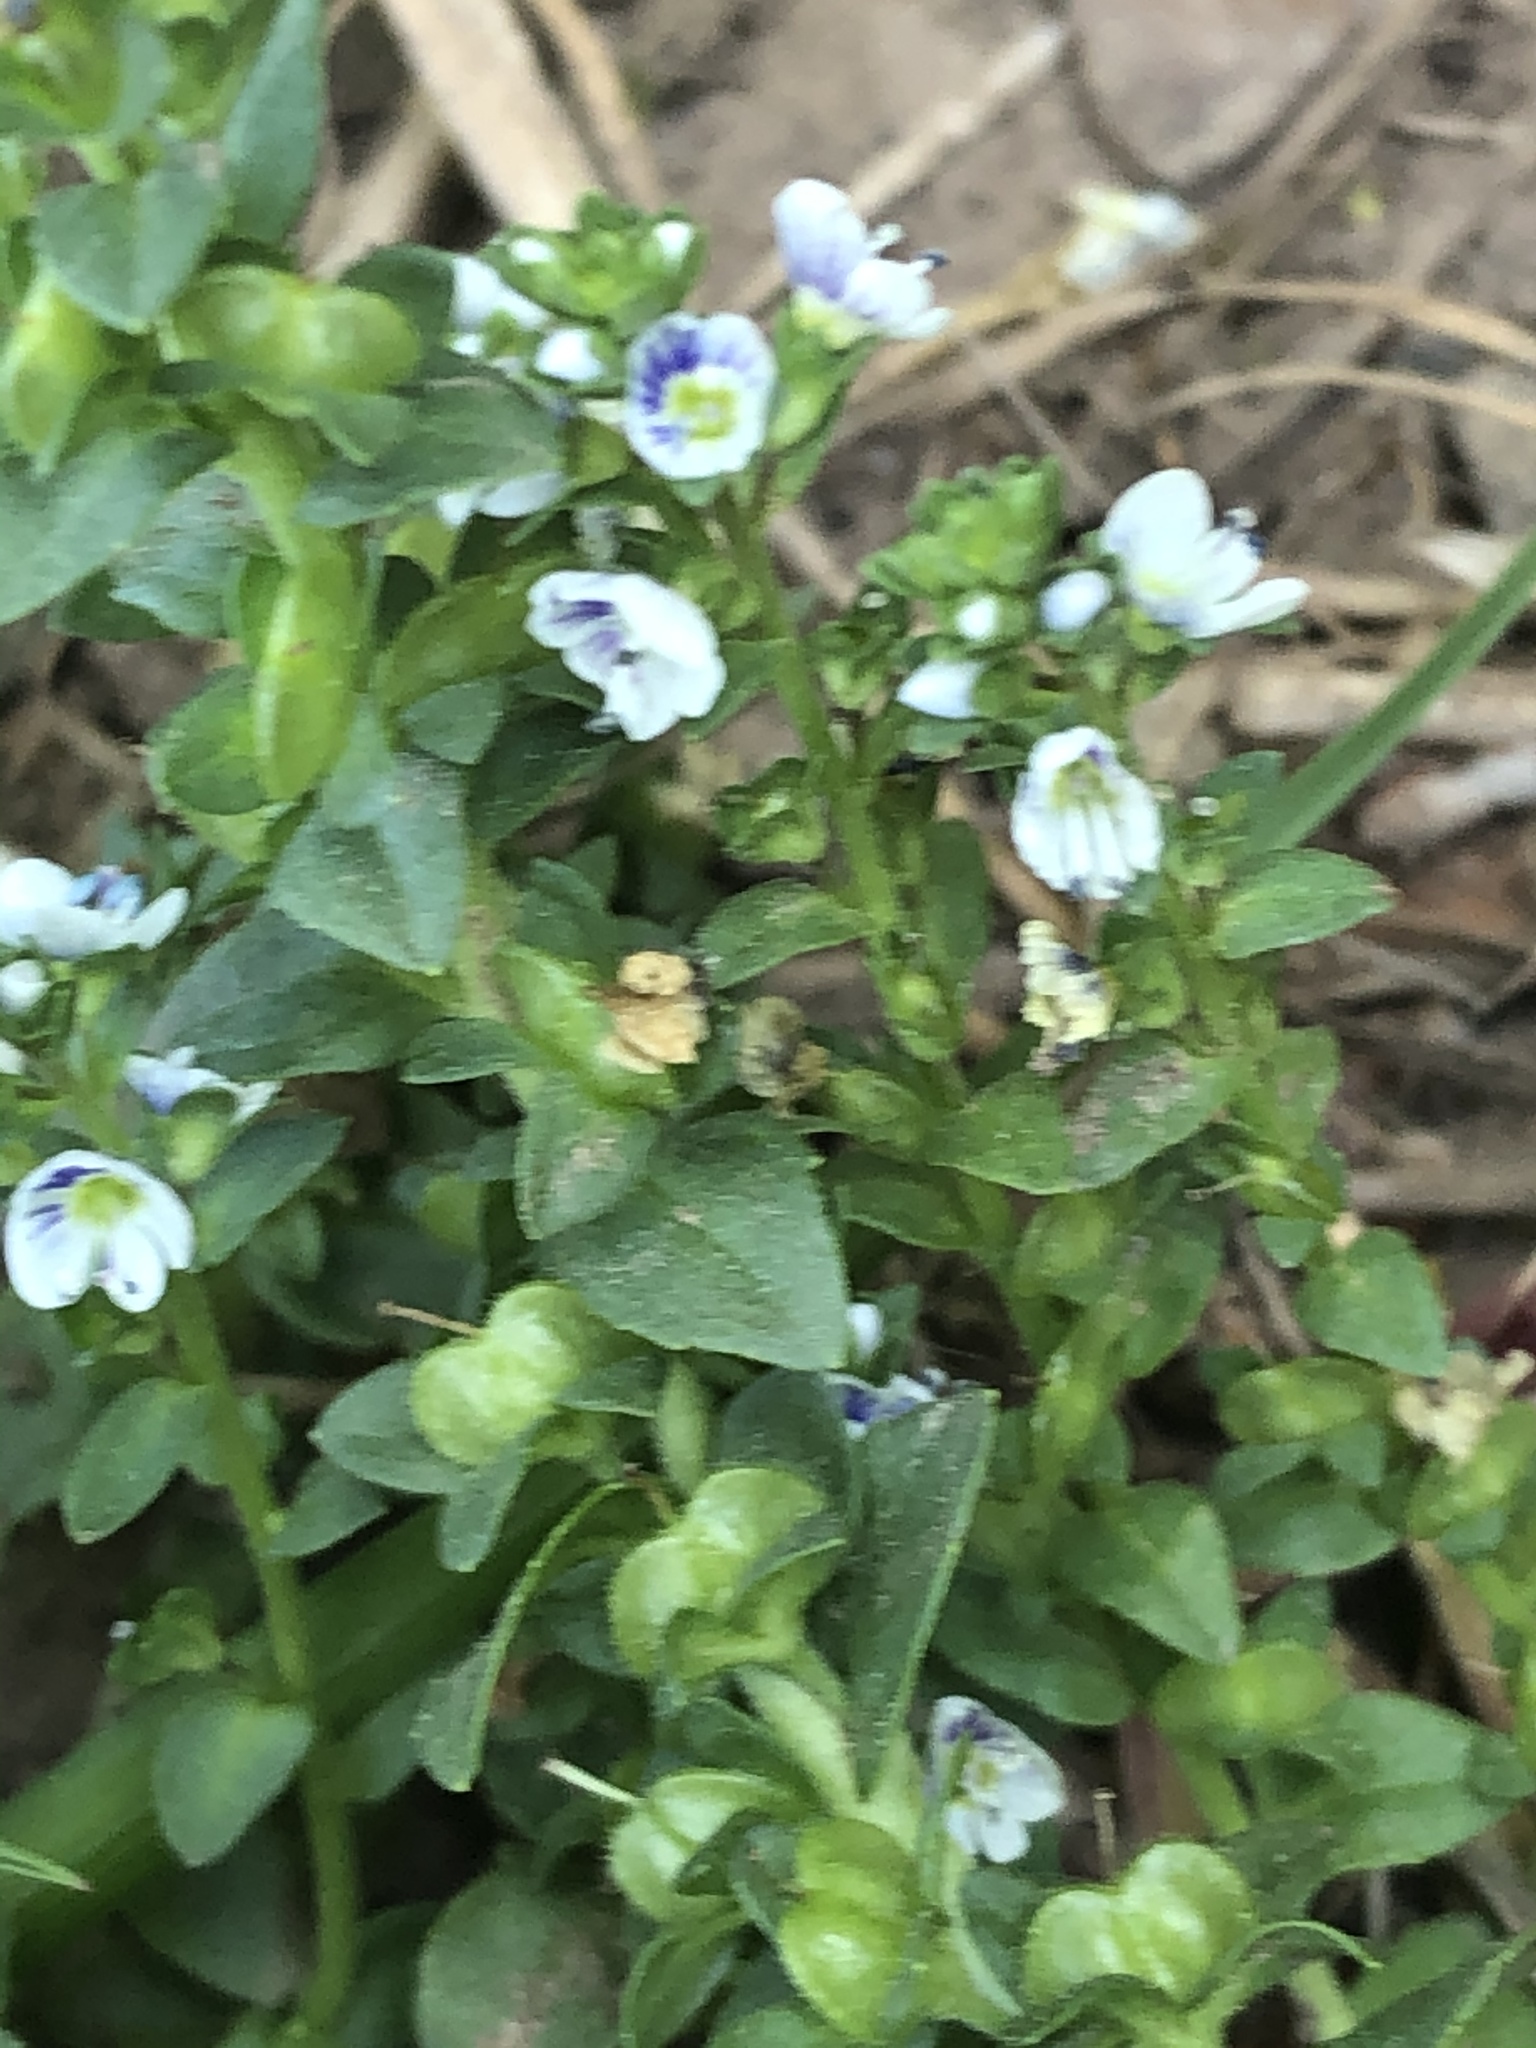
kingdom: Plantae
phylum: Tracheophyta
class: Magnoliopsida
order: Lamiales
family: Plantaginaceae
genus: Veronica
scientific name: Veronica serpyllifolia
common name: Thyme-leaved speedwell
